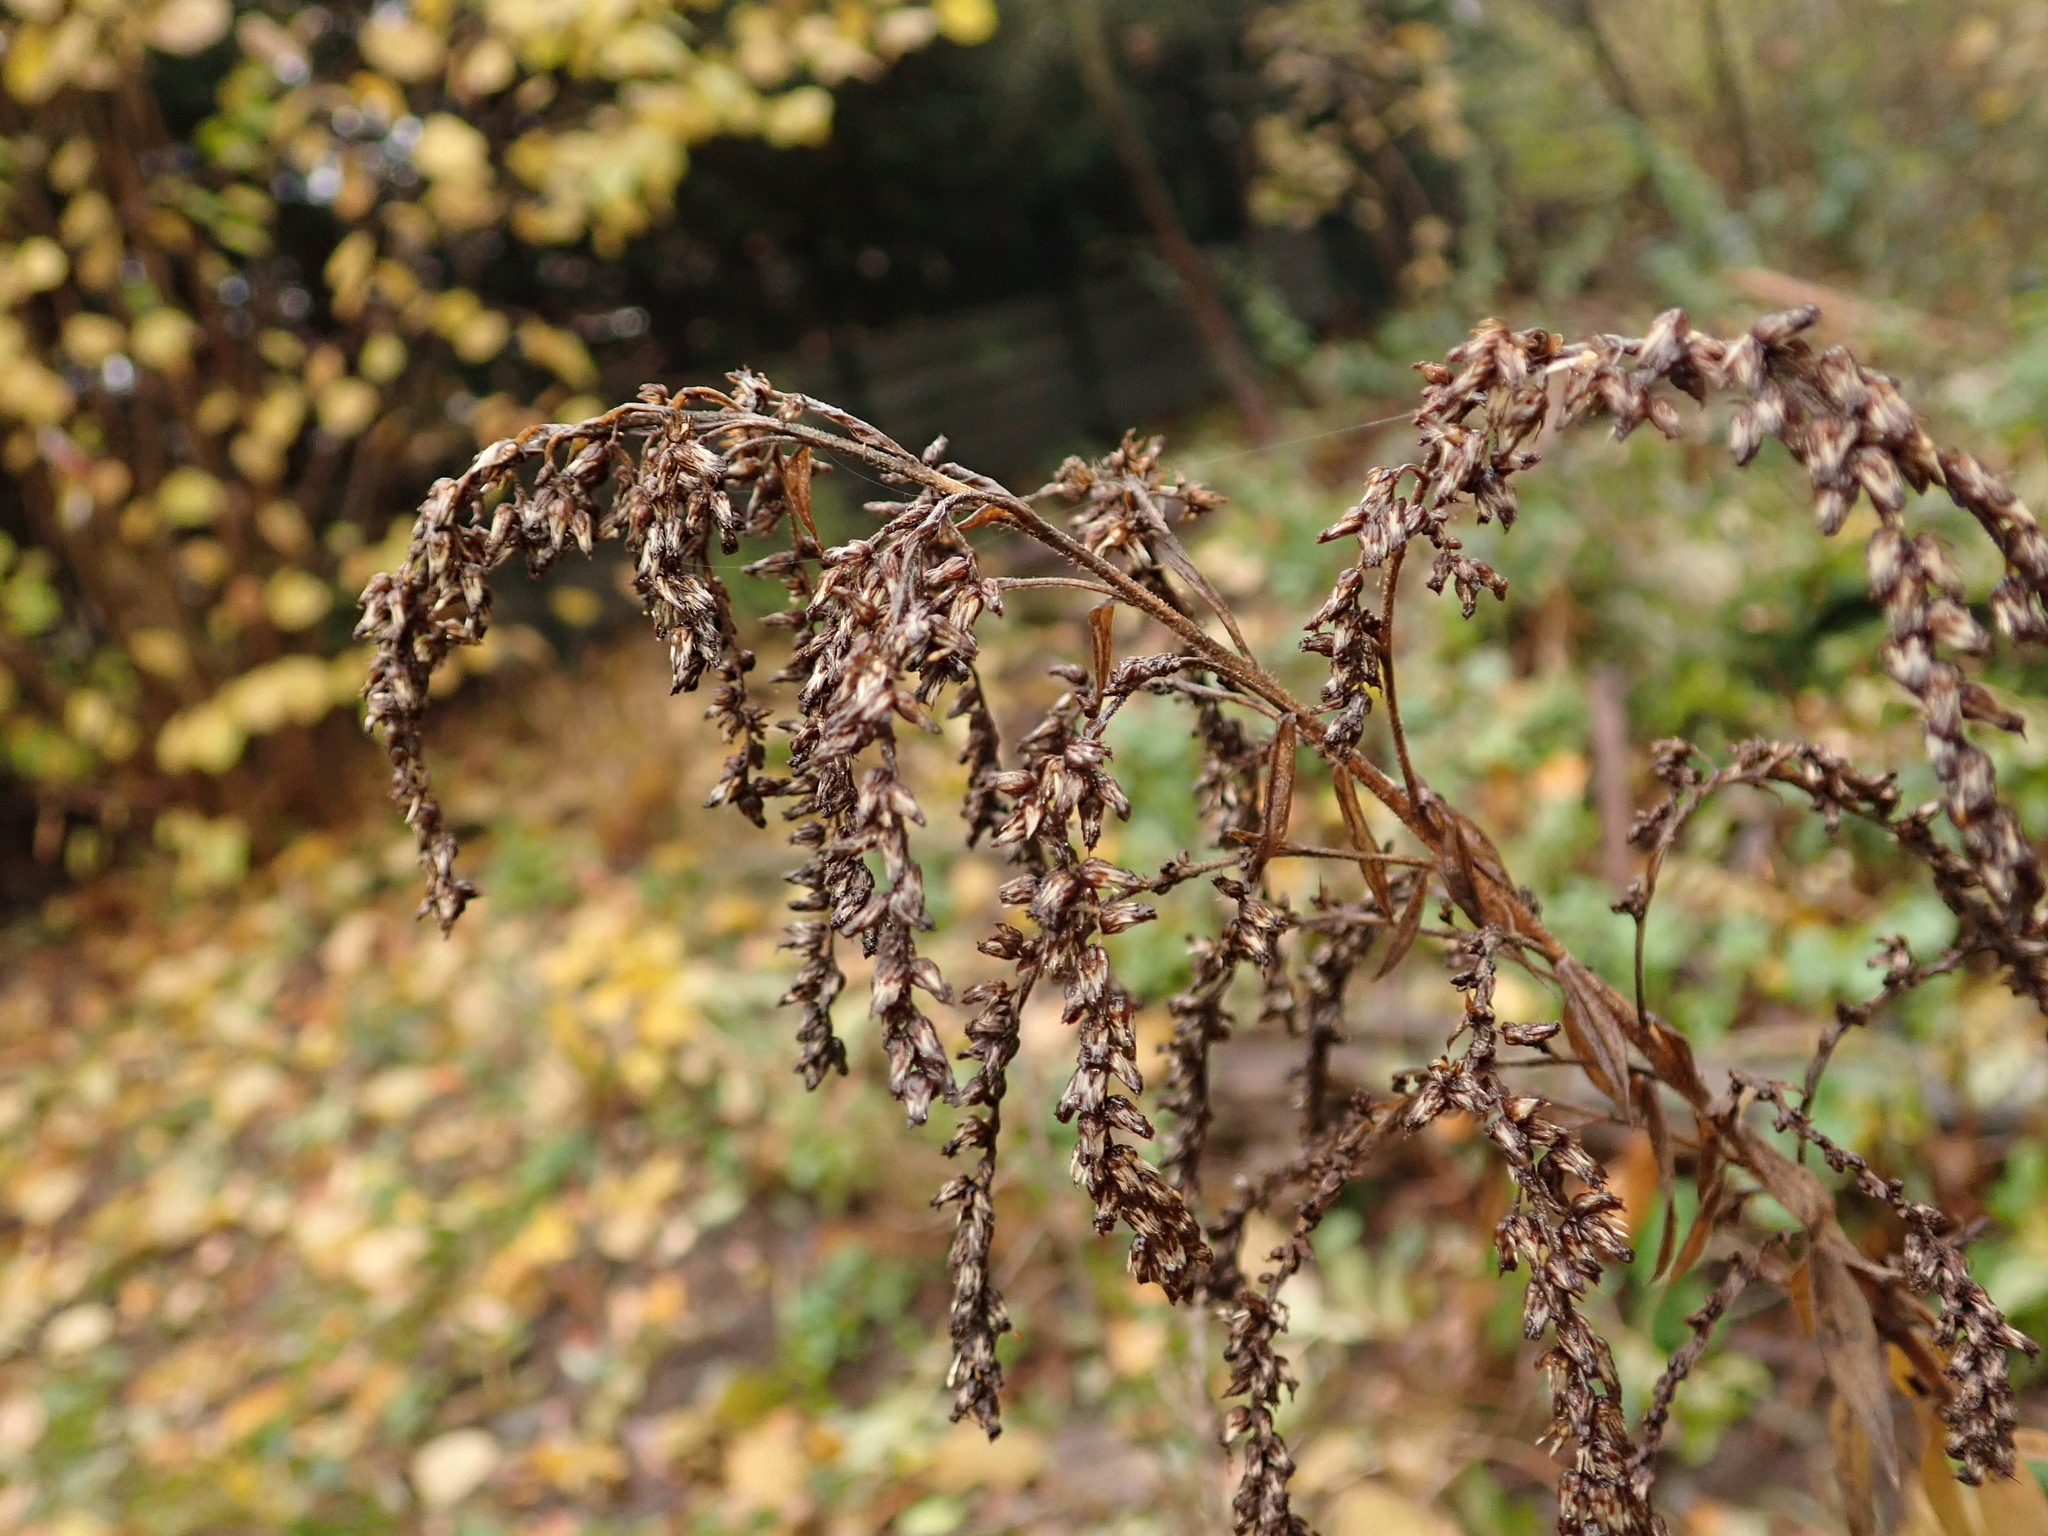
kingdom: Plantae
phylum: Tracheophyta
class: Magnoliopsida
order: Asterales
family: Asteraceae
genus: Solidago
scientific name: Solidago canadensis
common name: Canada goldenrod
